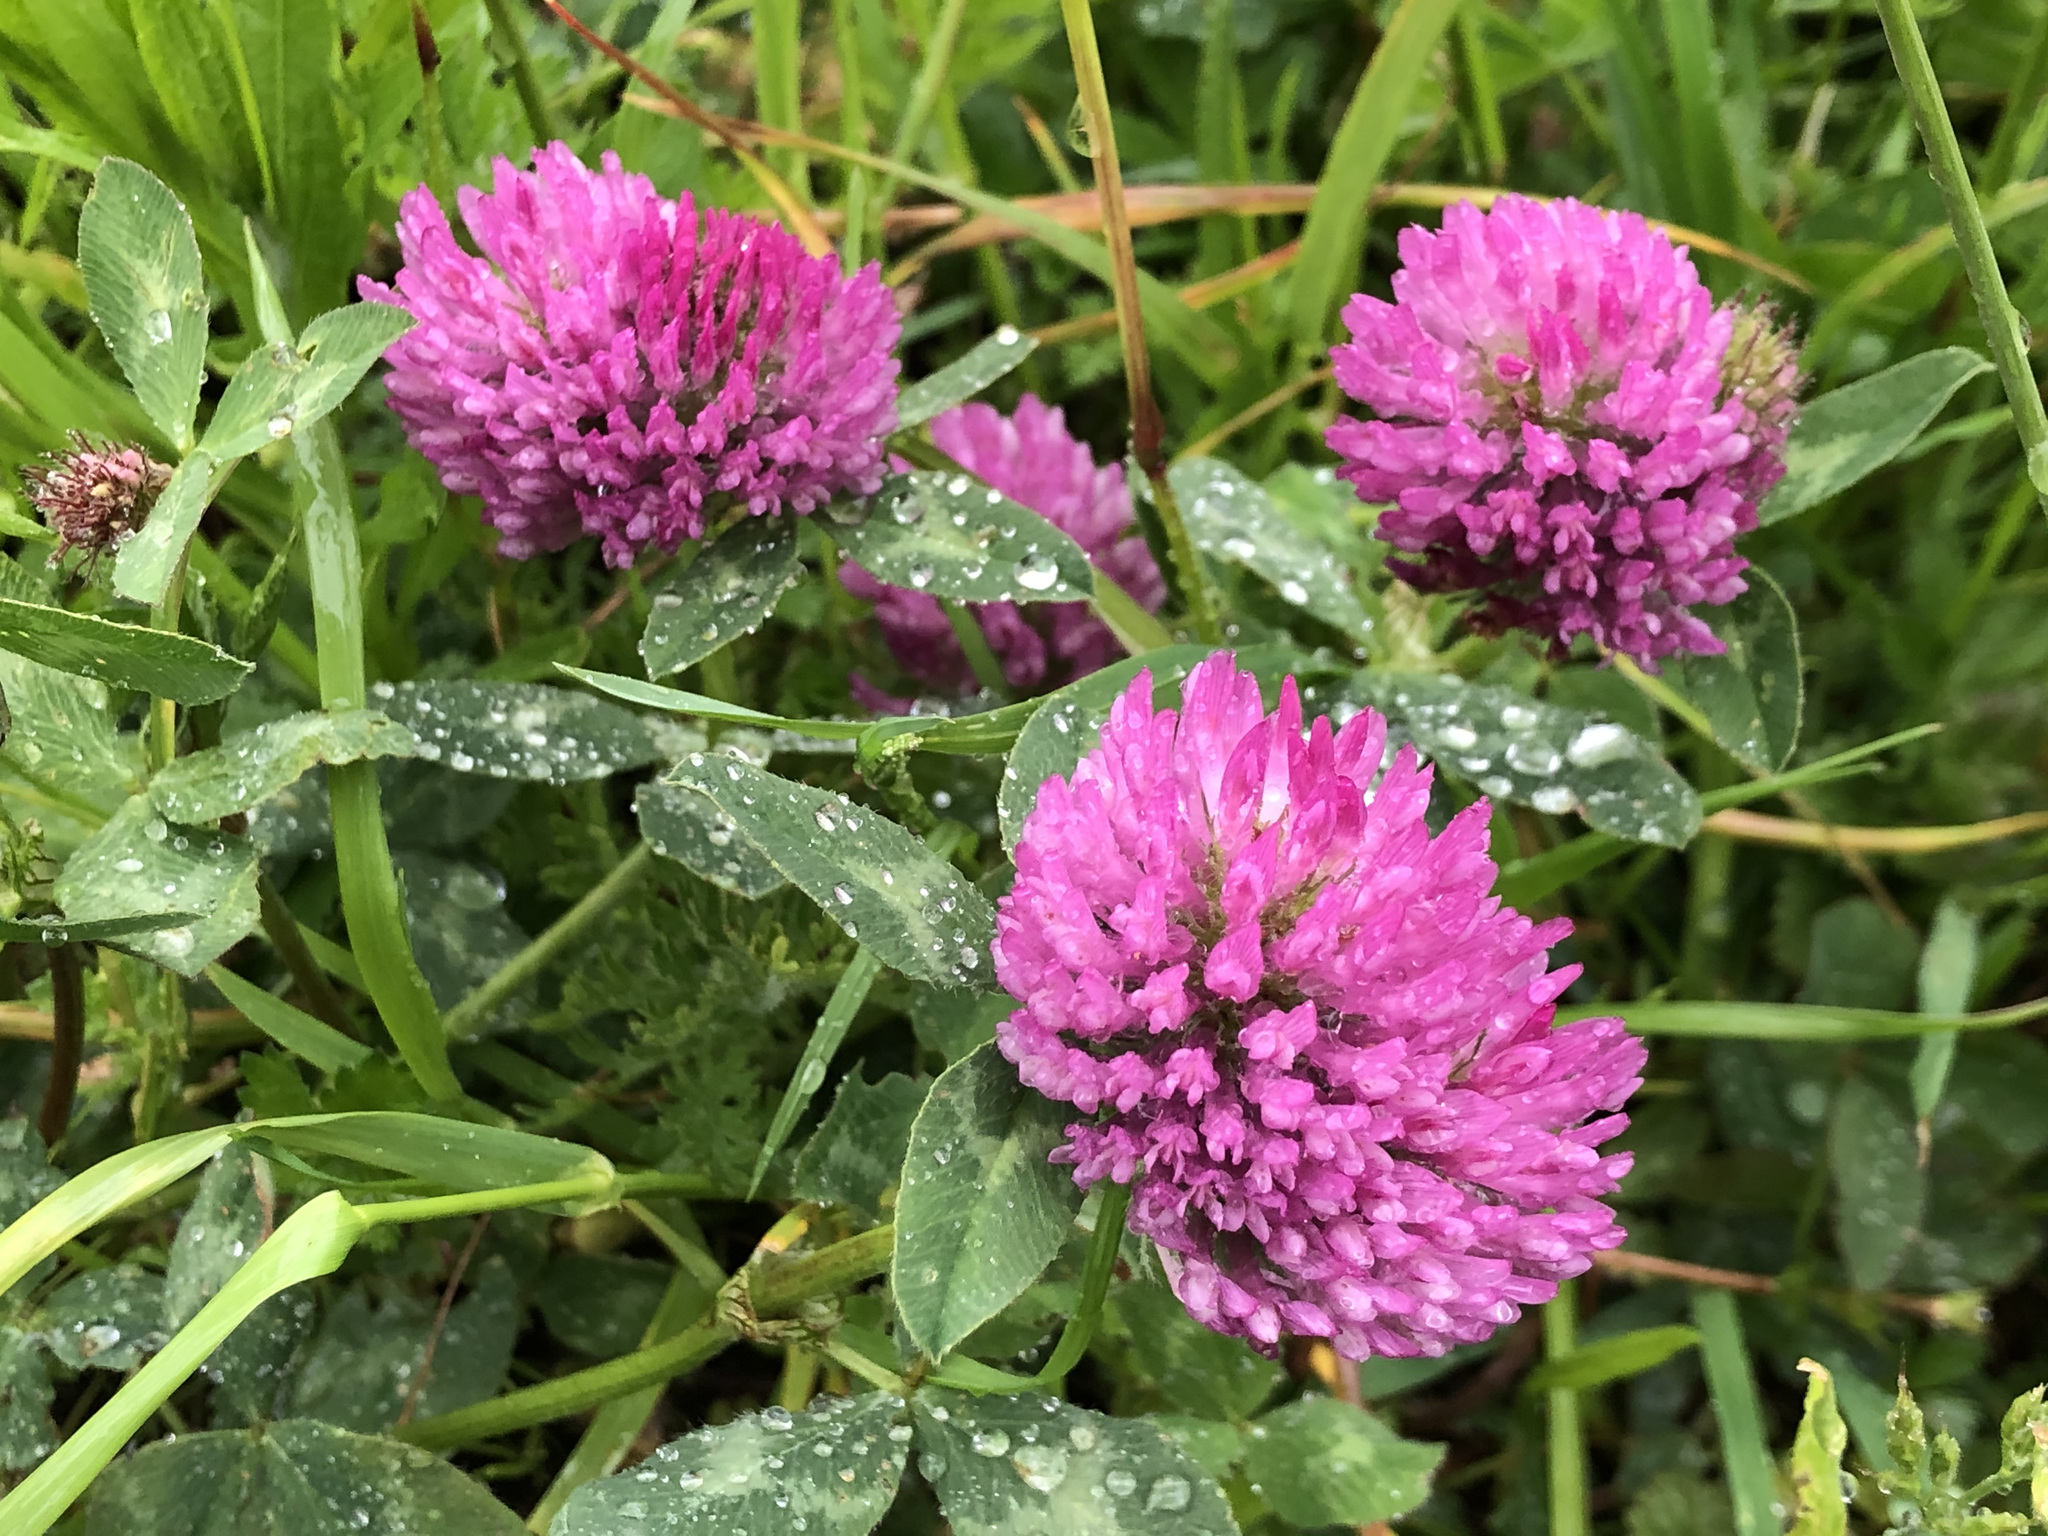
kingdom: Plantae
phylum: Tracheophyta
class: Magnoliopsida
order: Fabales
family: Fabaceae
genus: Trifolium
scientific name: Trifolium pratense
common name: Red clover
